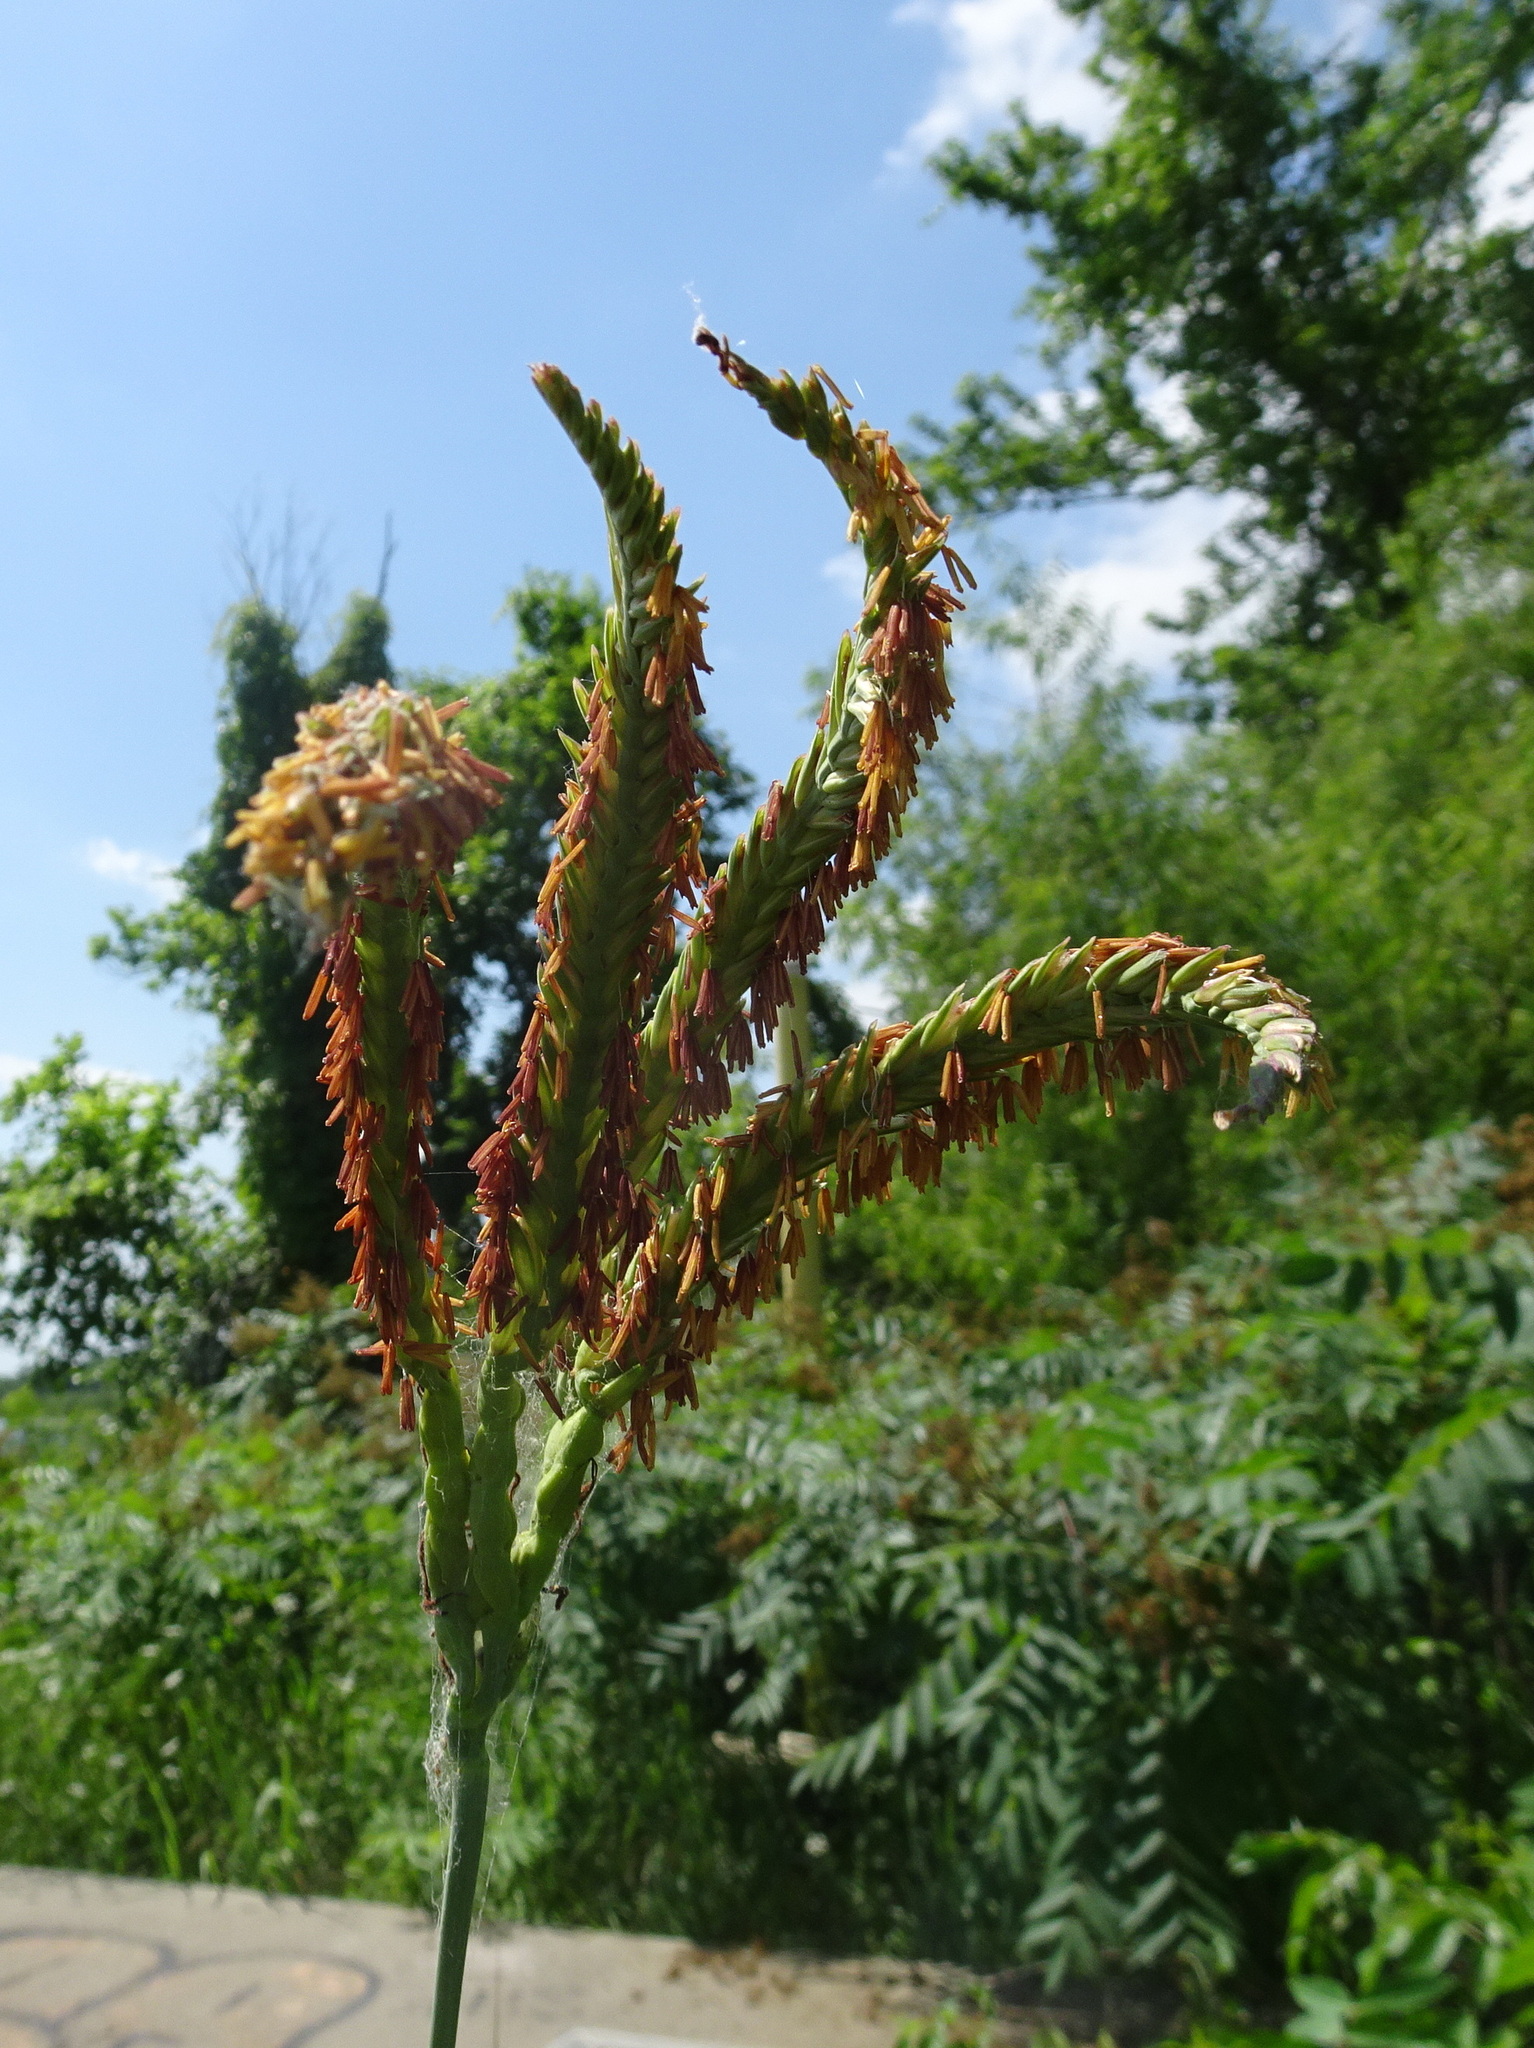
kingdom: Plantae
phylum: Tracheophyta
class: Liliopsida
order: Poales
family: Poaceae
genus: Tripsacum
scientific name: Tripsacum dactyloides
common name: Buffalo-grass
